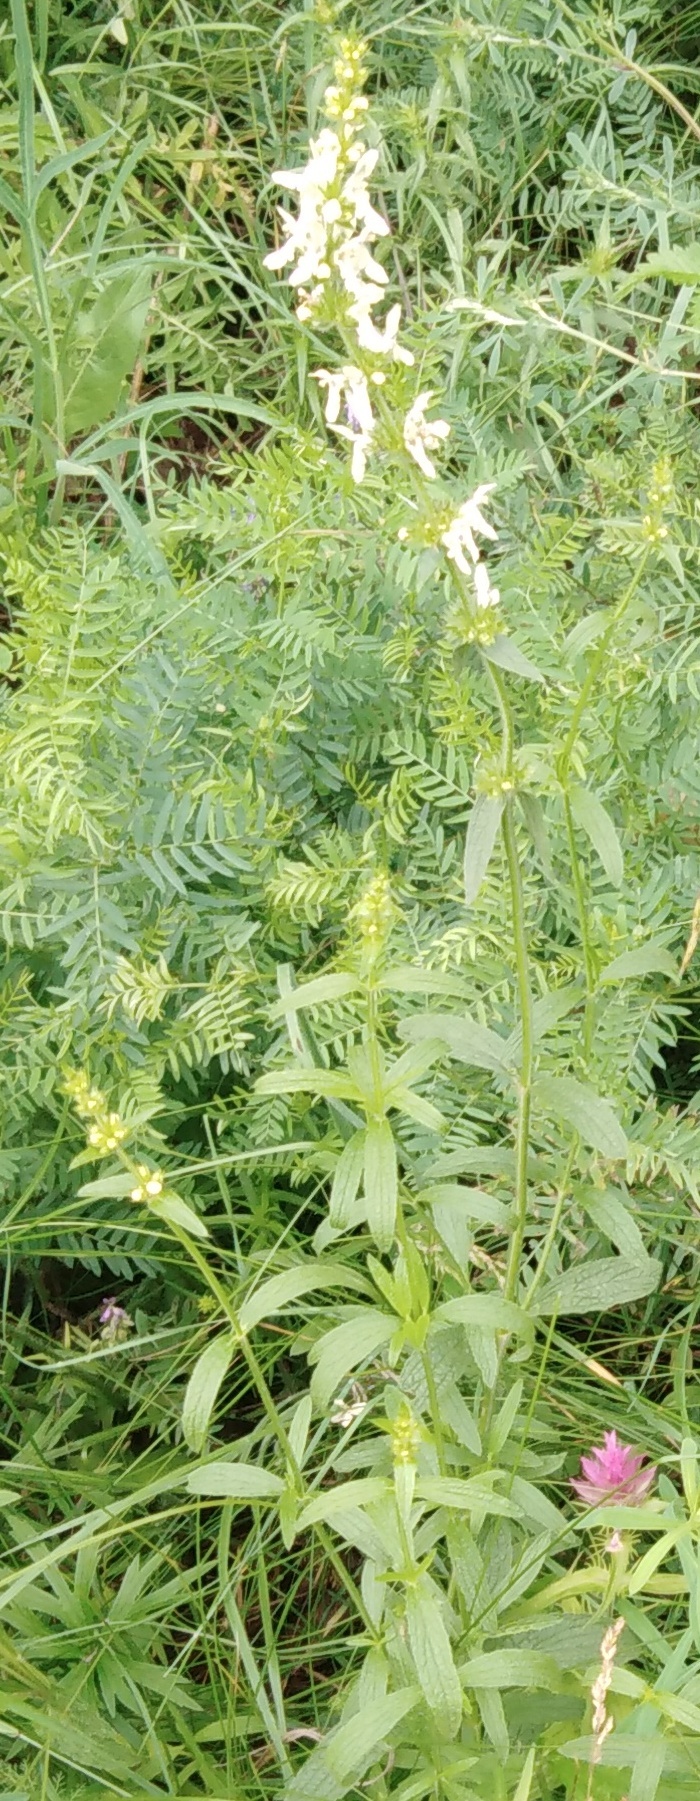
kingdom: Plantae
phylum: Tracheophyta
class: Magnoliopsida
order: Lamiales
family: Lamiaceae
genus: Stachys
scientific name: Stachys recta
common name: Perennial yellow-woundwort
